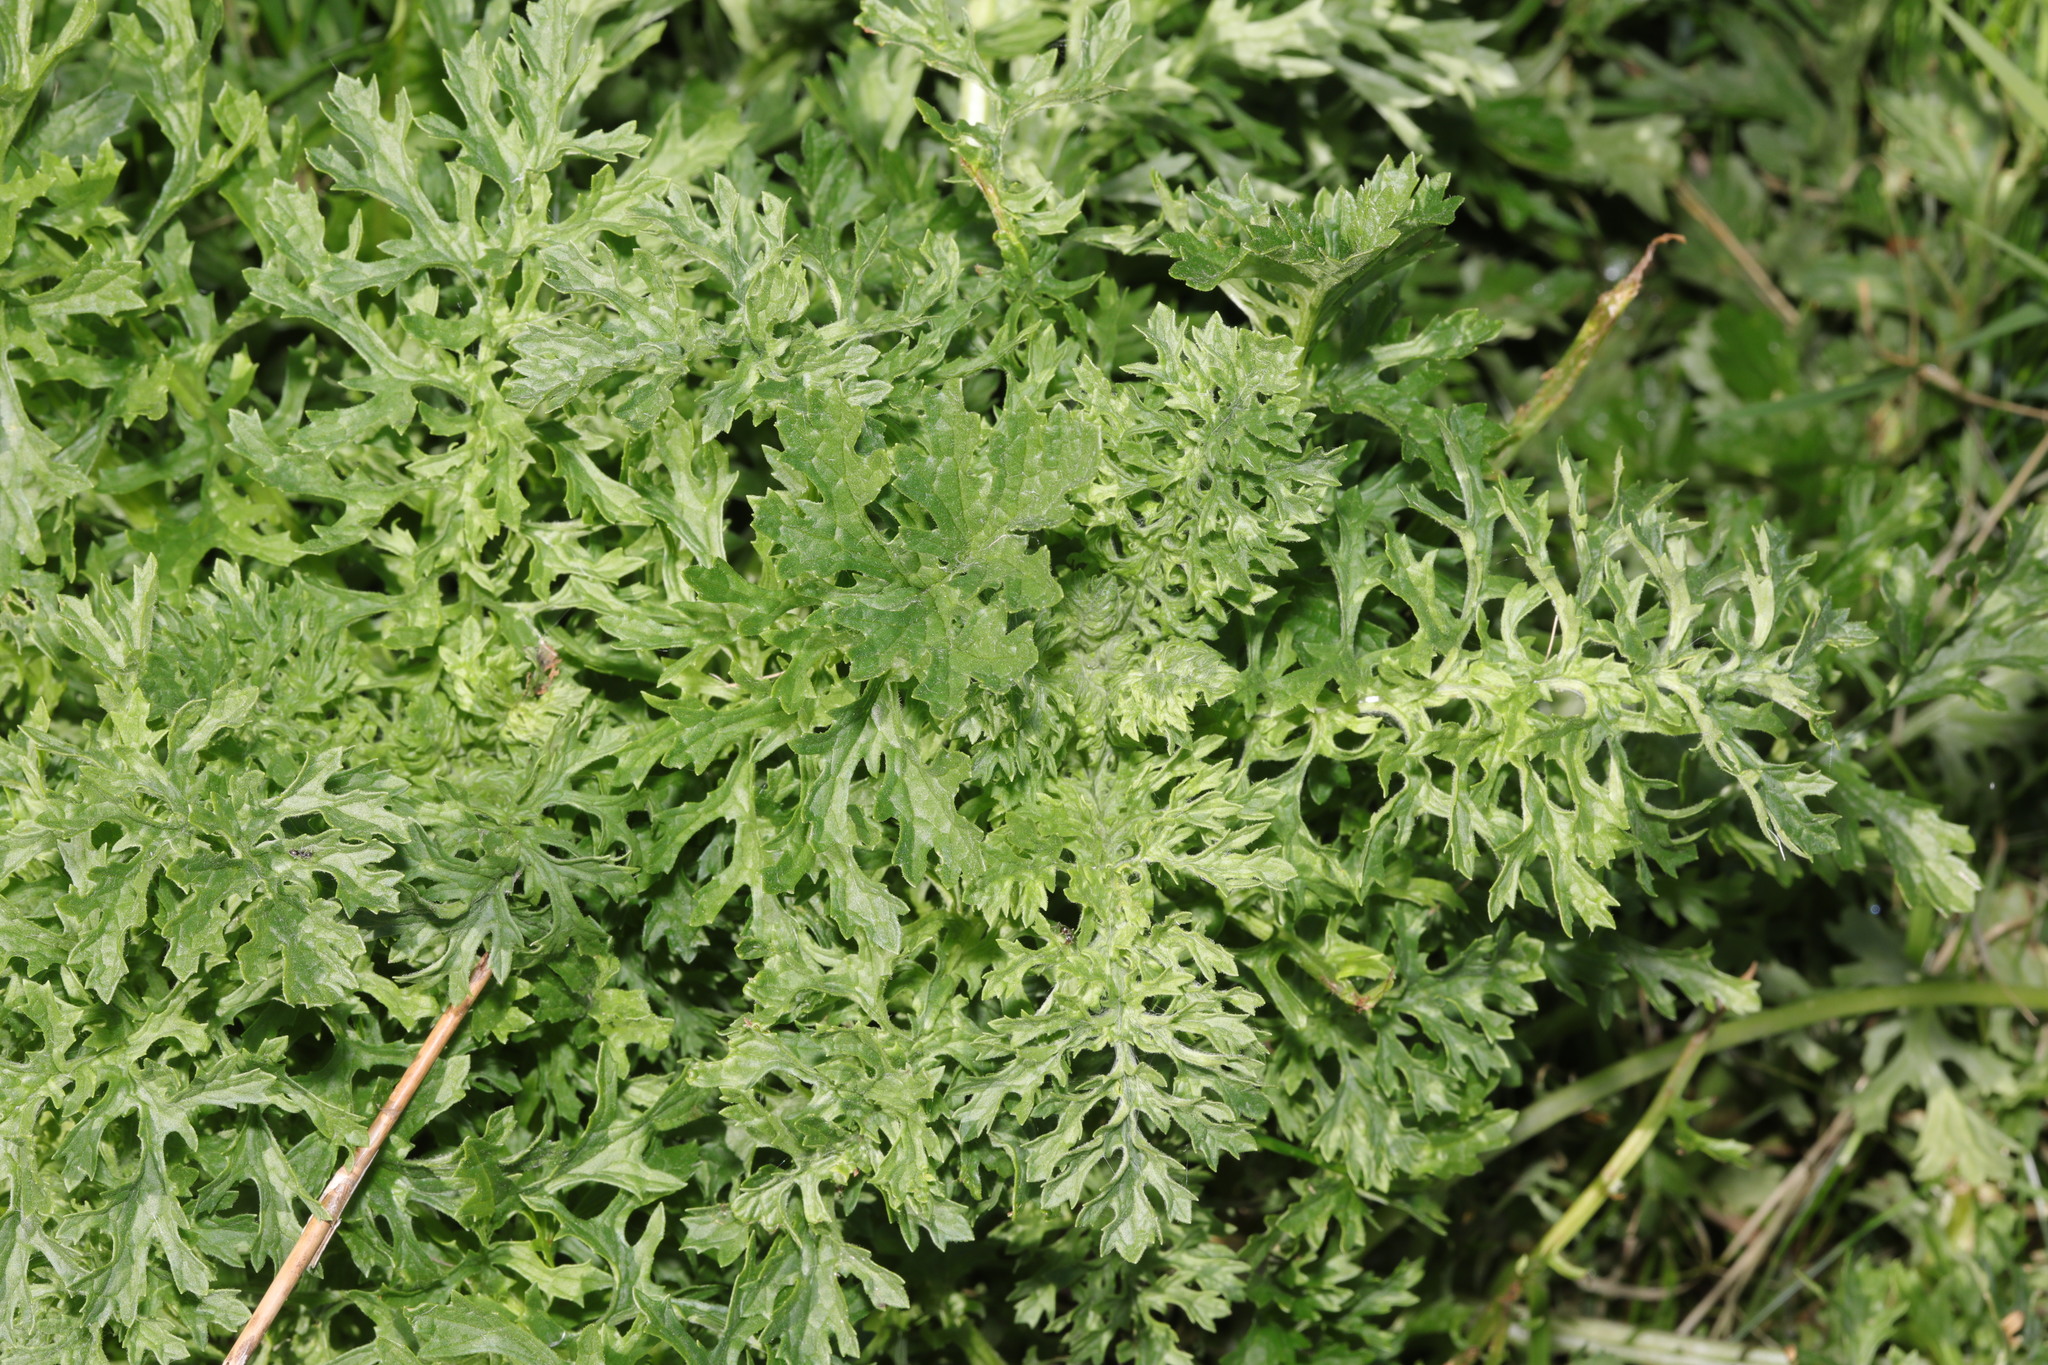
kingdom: Plantae
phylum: Tracheophyta
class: Magnoliopsida
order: Asterales
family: Asteraceae
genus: Jacobaea
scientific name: Jacobaea vulgaris
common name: Stinking willie
